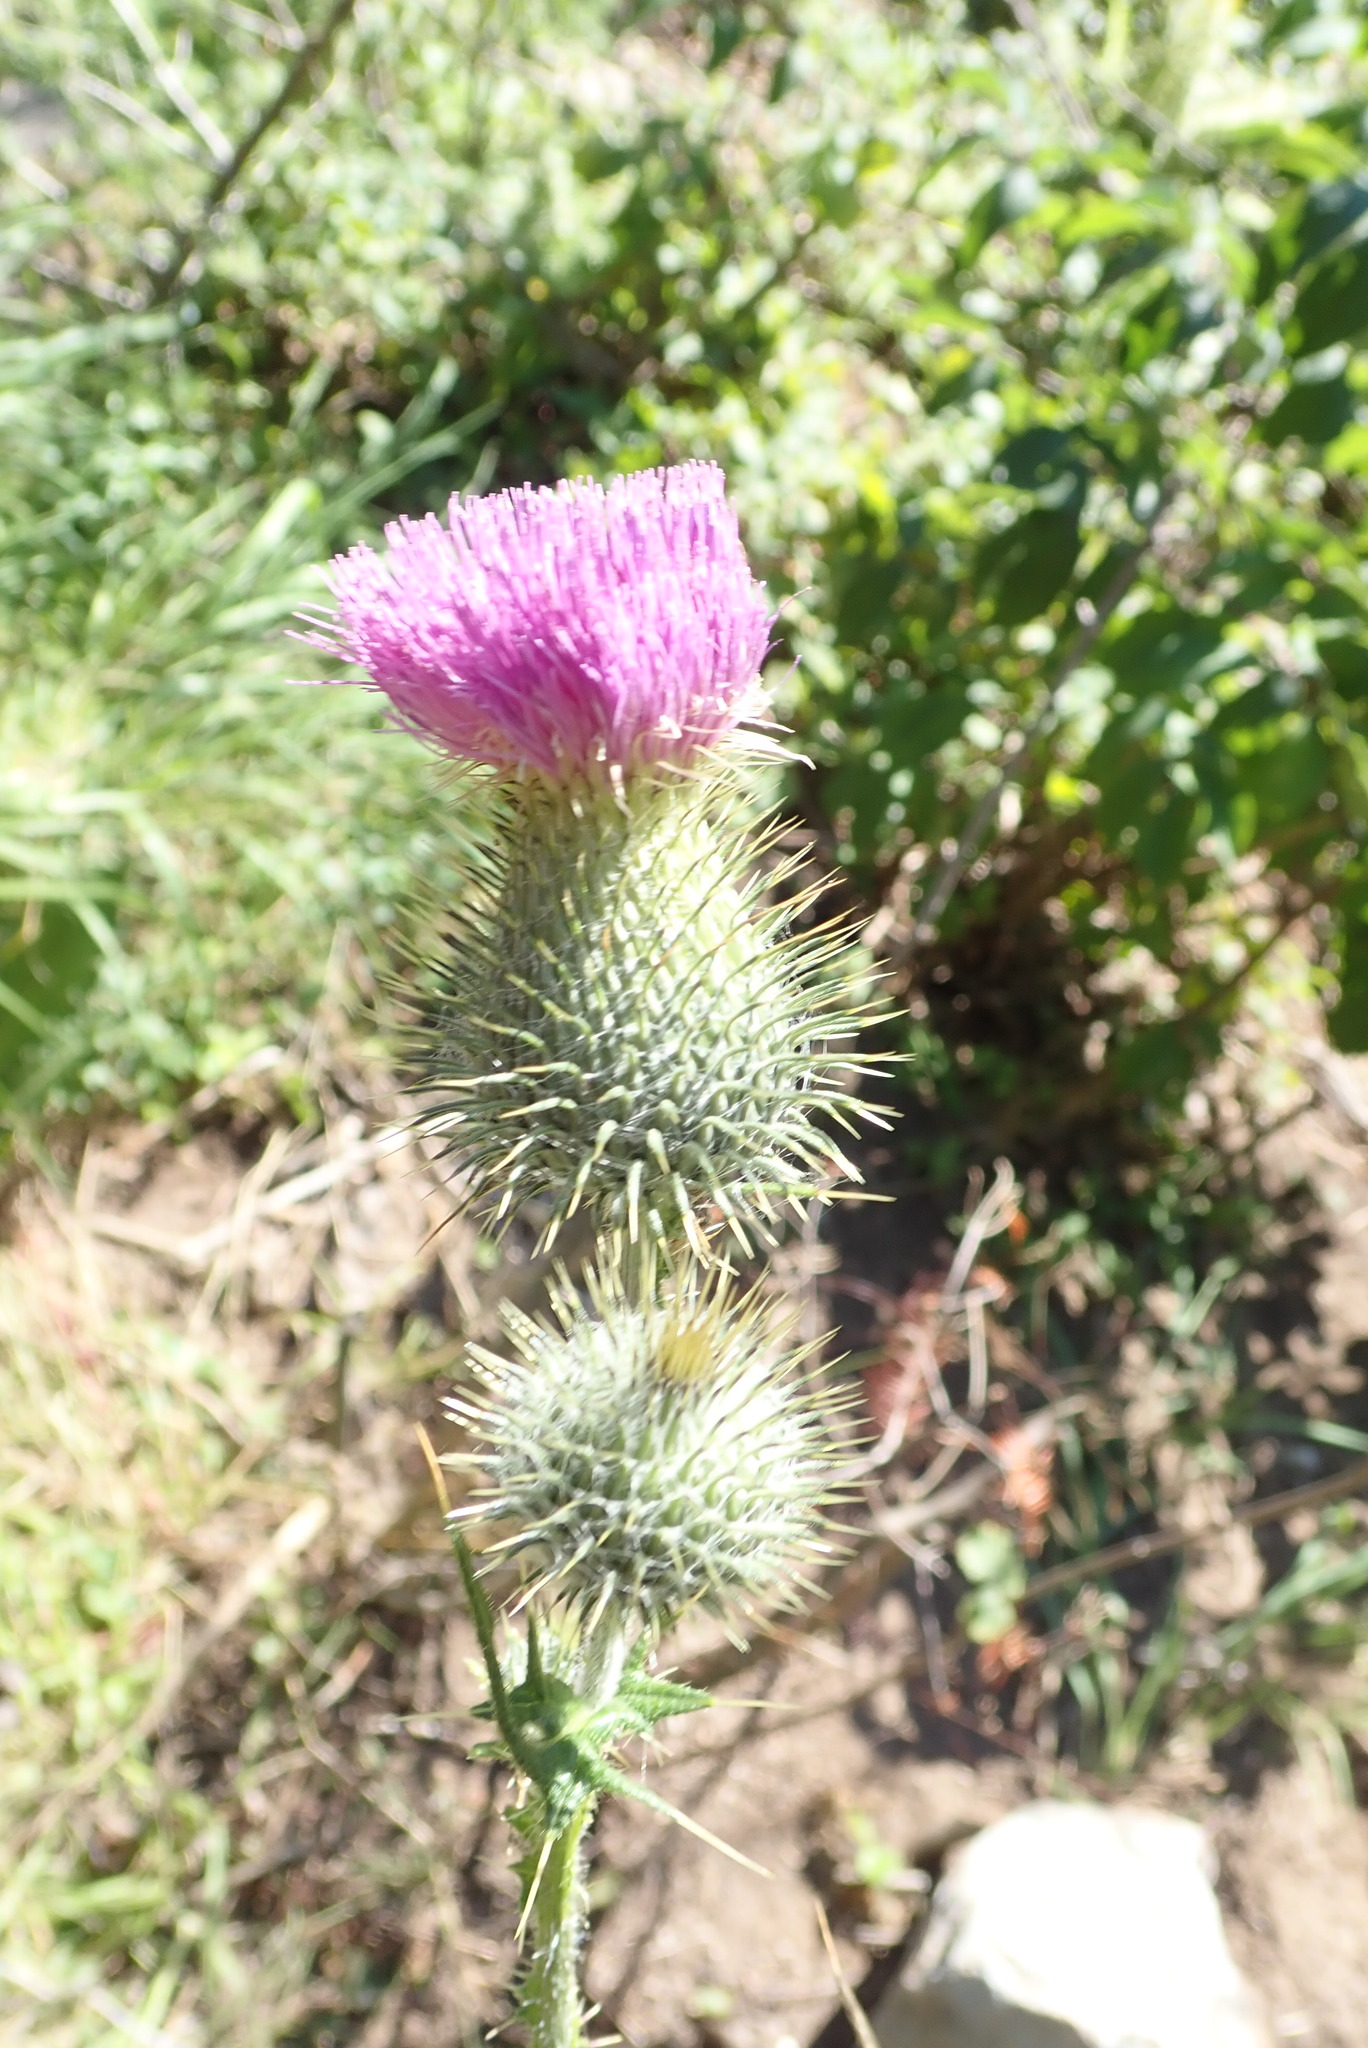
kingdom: Plantae
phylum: Tracheophyta
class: Magnoliopsida
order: Asterales
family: Asteraceae
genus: Cirsium
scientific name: Cirsium vulgare
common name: Bull thistle
